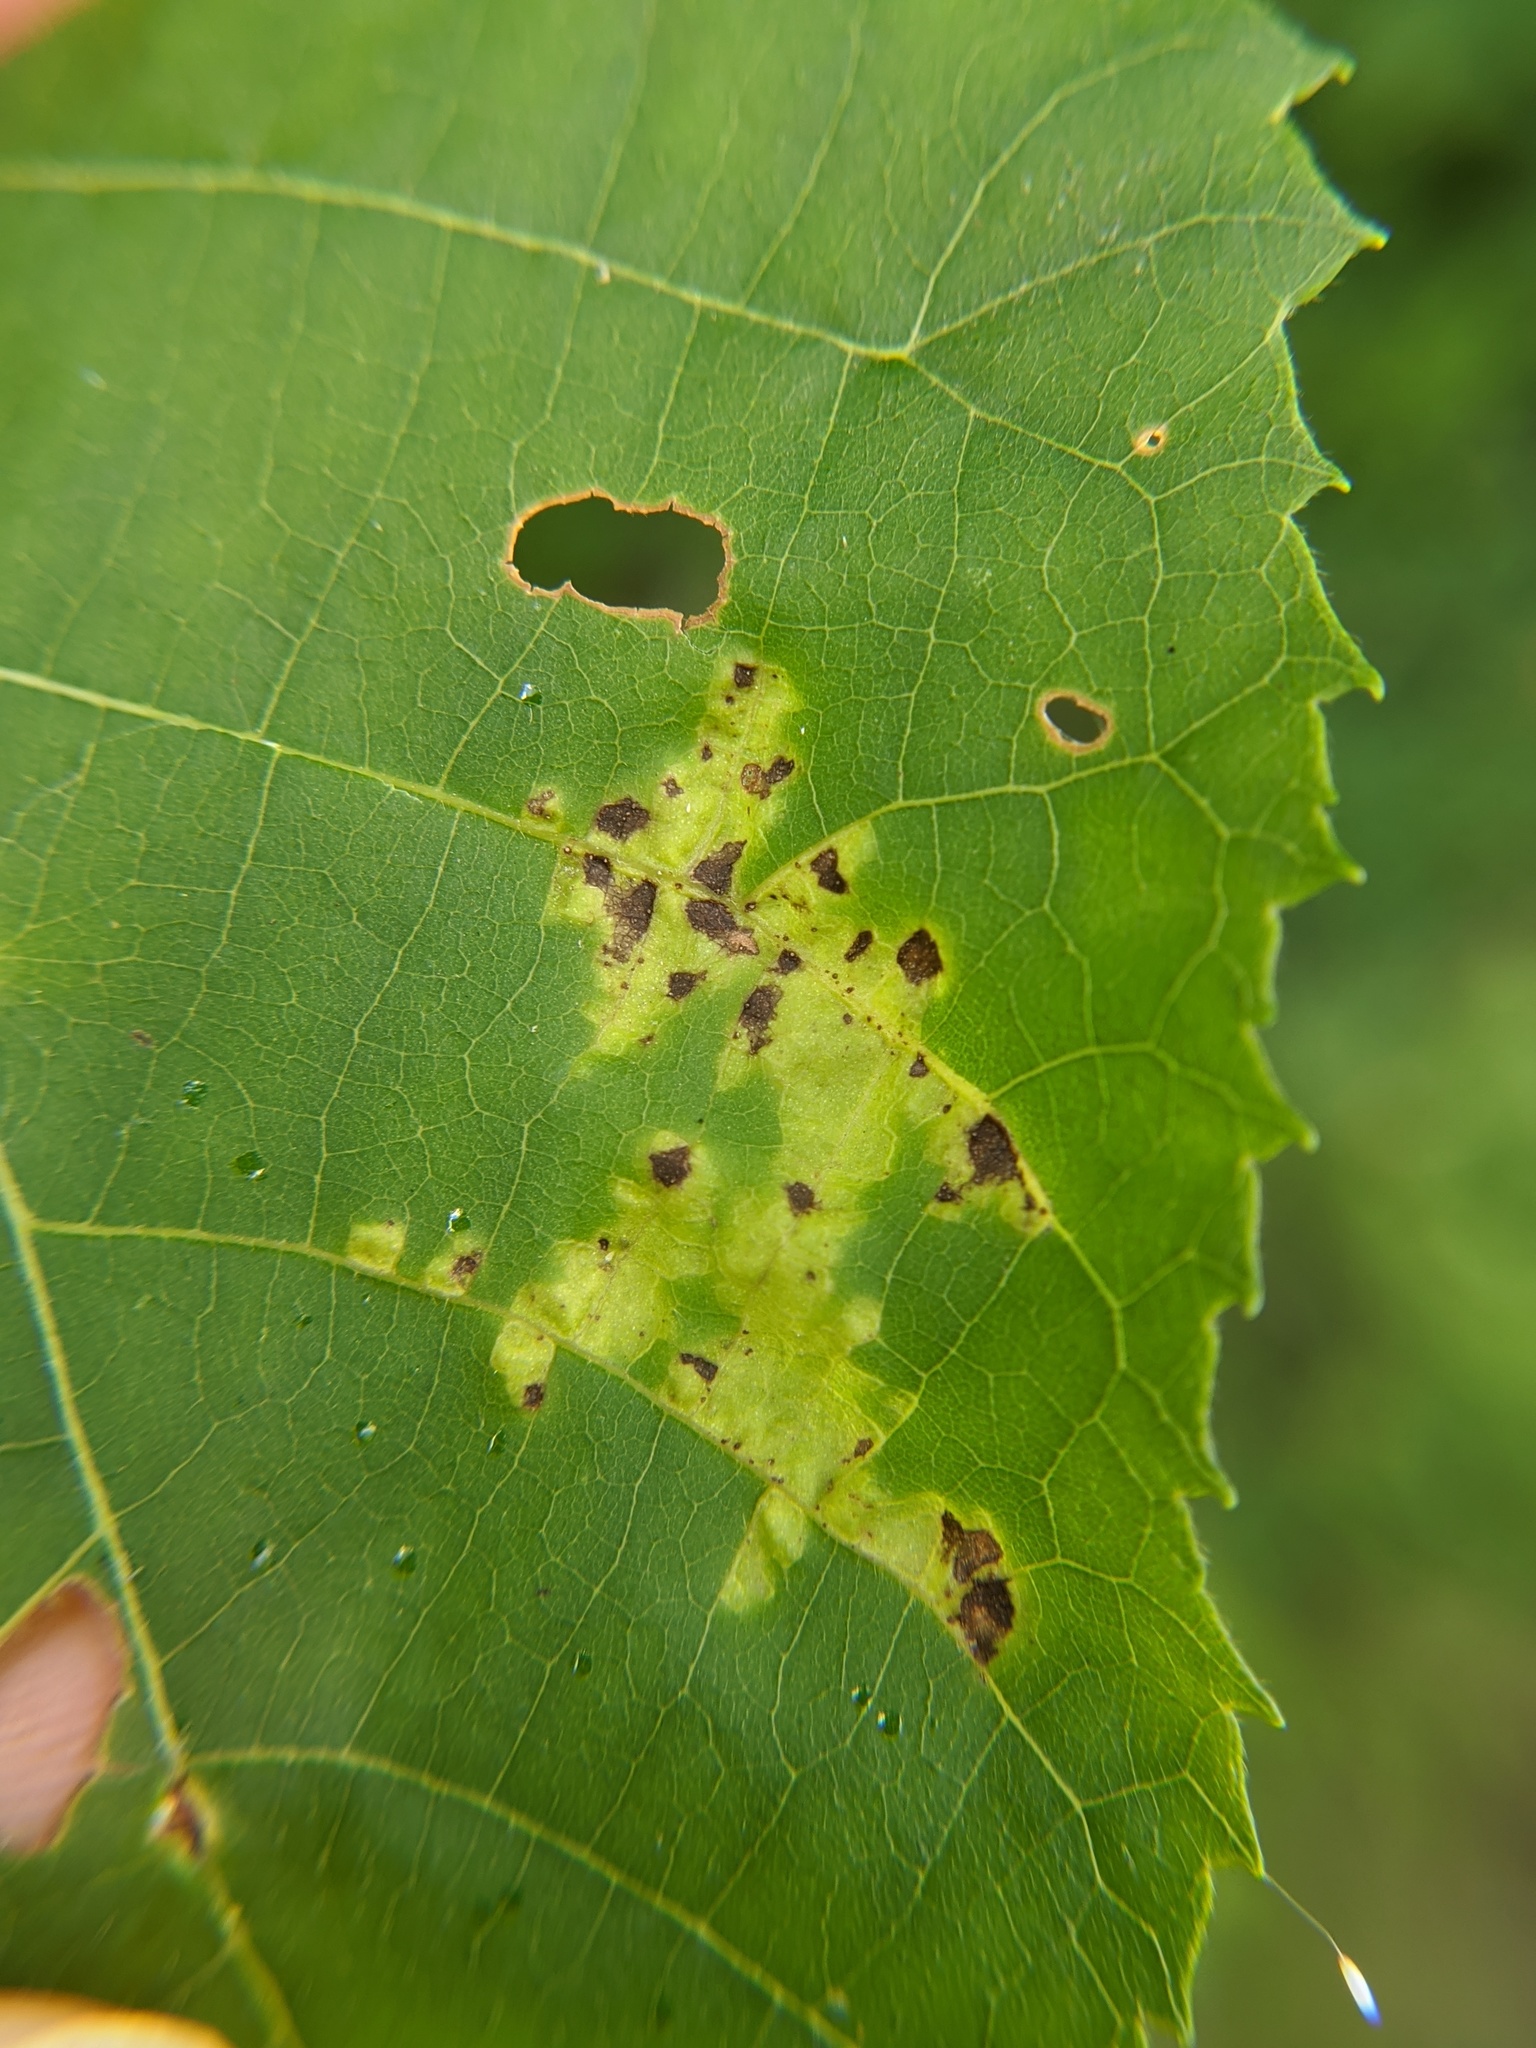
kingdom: Fungi
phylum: Basidiomycota
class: Exobasidiomycetes
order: Microstromatales
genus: Pseudomicrostroma
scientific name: Pseudomicrostroma juglandis
